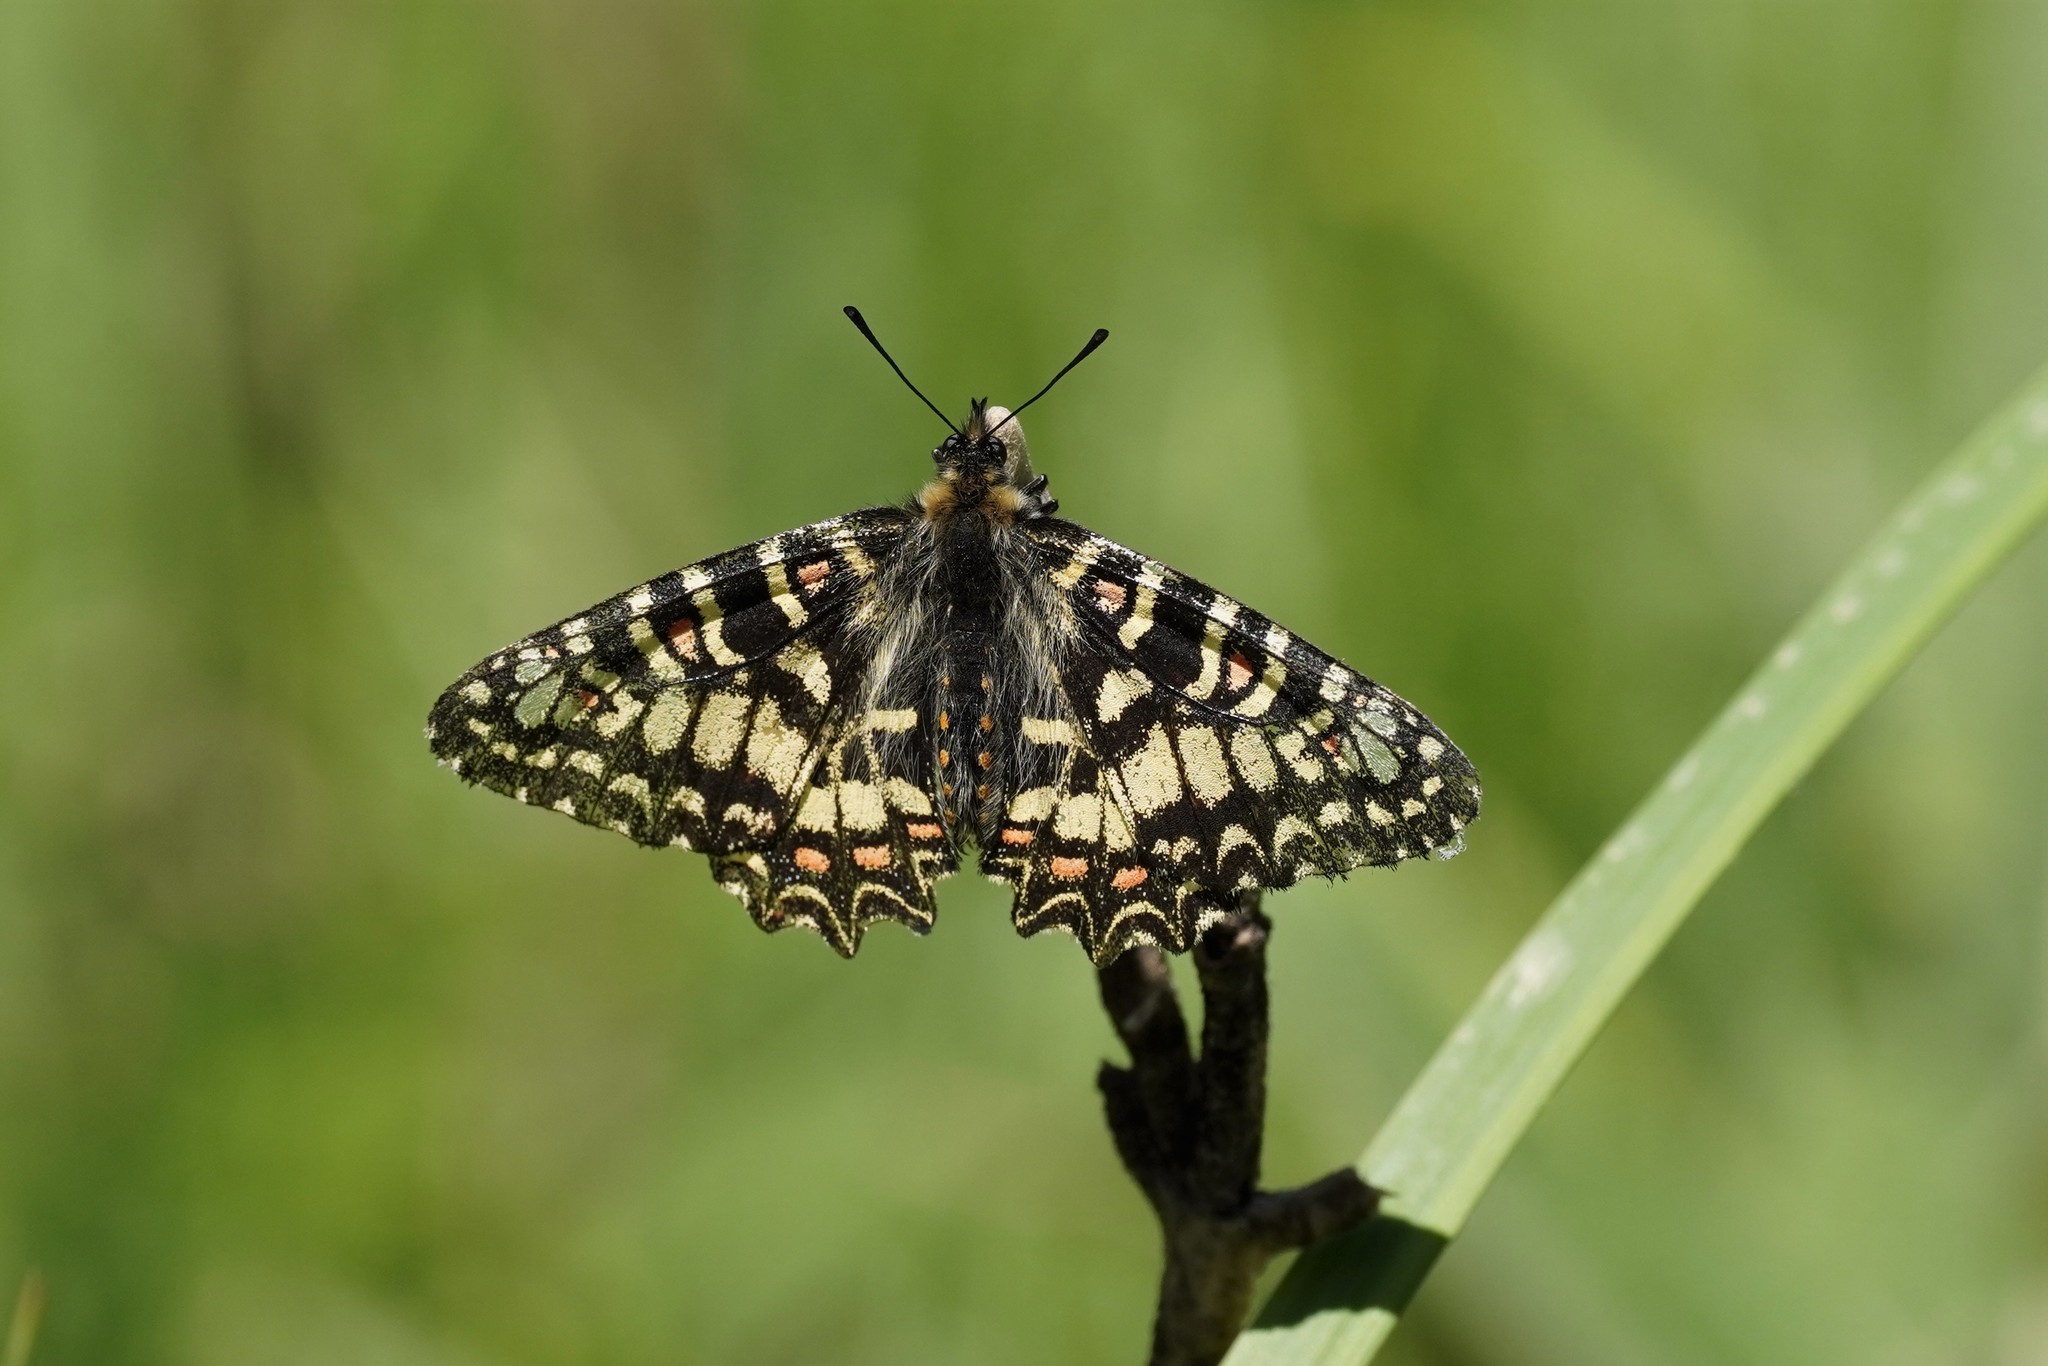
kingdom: Animalia
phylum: Arthropoda
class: Insecta
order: Lepidoptera
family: Papilionidae
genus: Zerynthia
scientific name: Zerynthia rumina
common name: Spanish festoon
